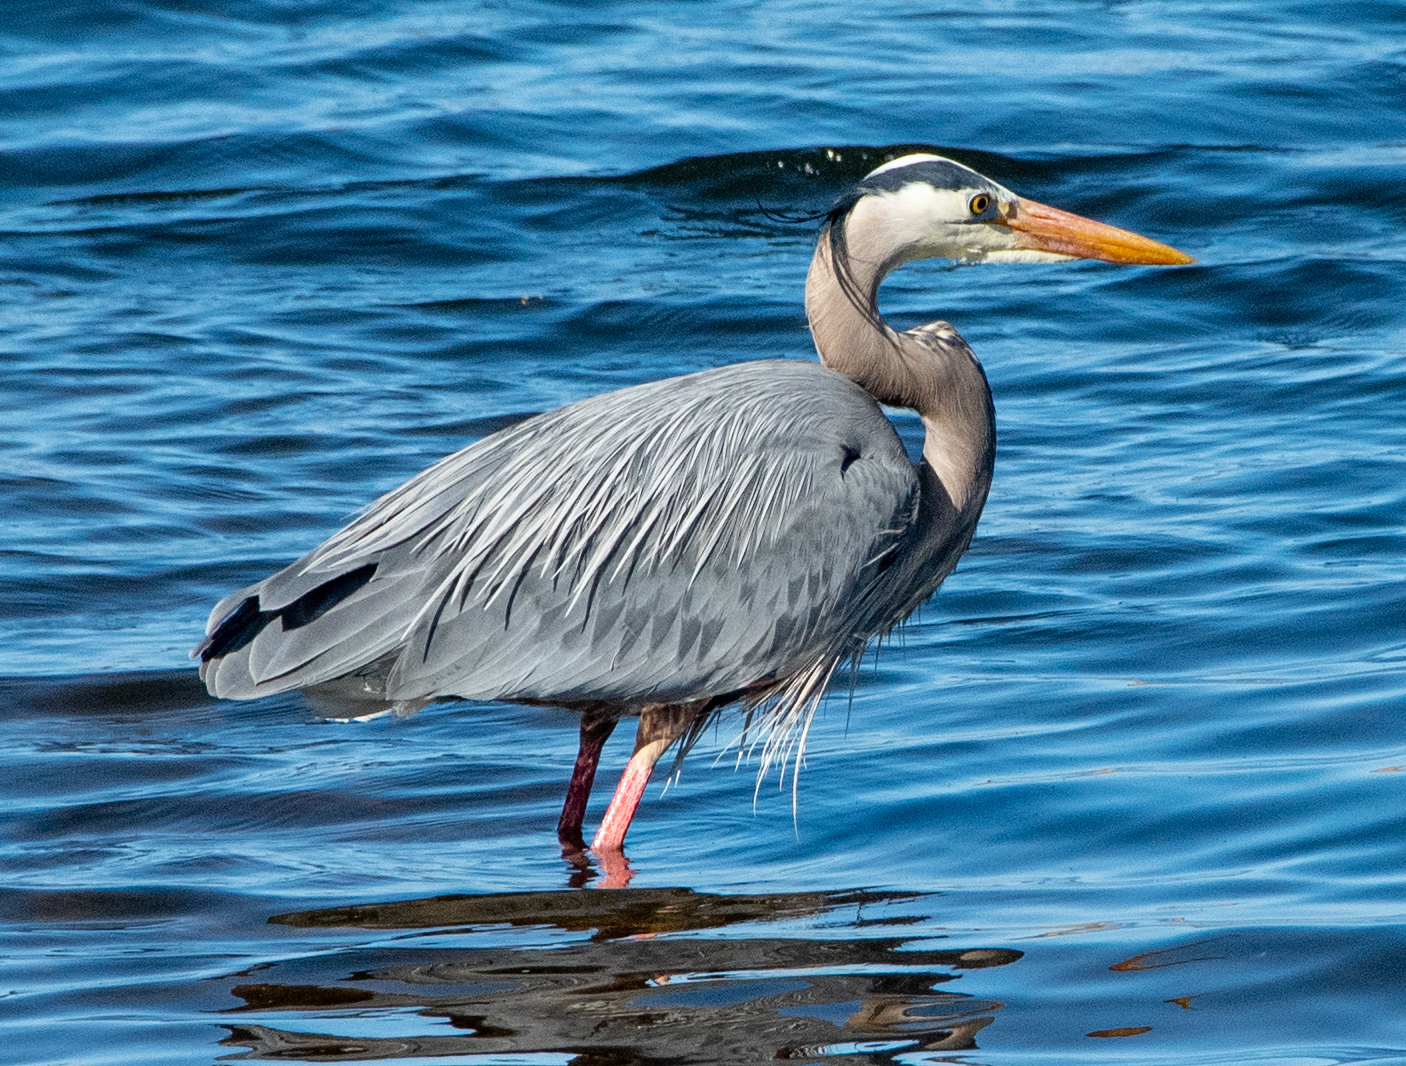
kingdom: Animalia
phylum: Chordata
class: Aves
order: Pelecaniformes
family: Ardeidae
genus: Ardea
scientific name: Ardea herodias
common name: Great blue heron
